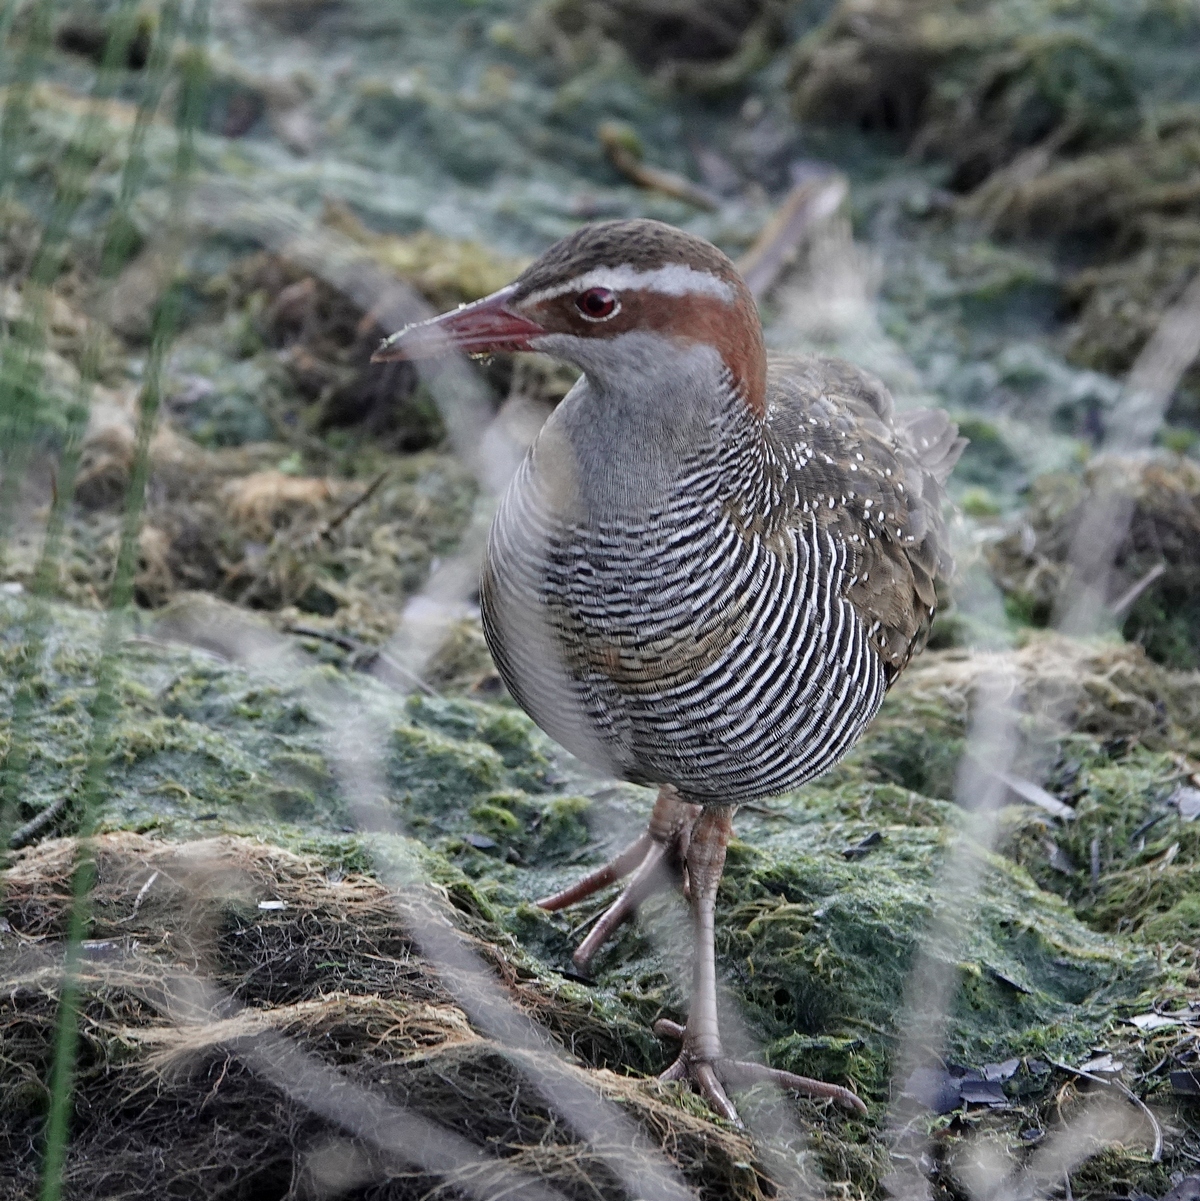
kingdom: Animalia
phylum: Chordata
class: Aves
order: Gruiformes
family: Rallidae
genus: Gallirallus
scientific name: Gallirallus philippensis
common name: Buff-banded rail
